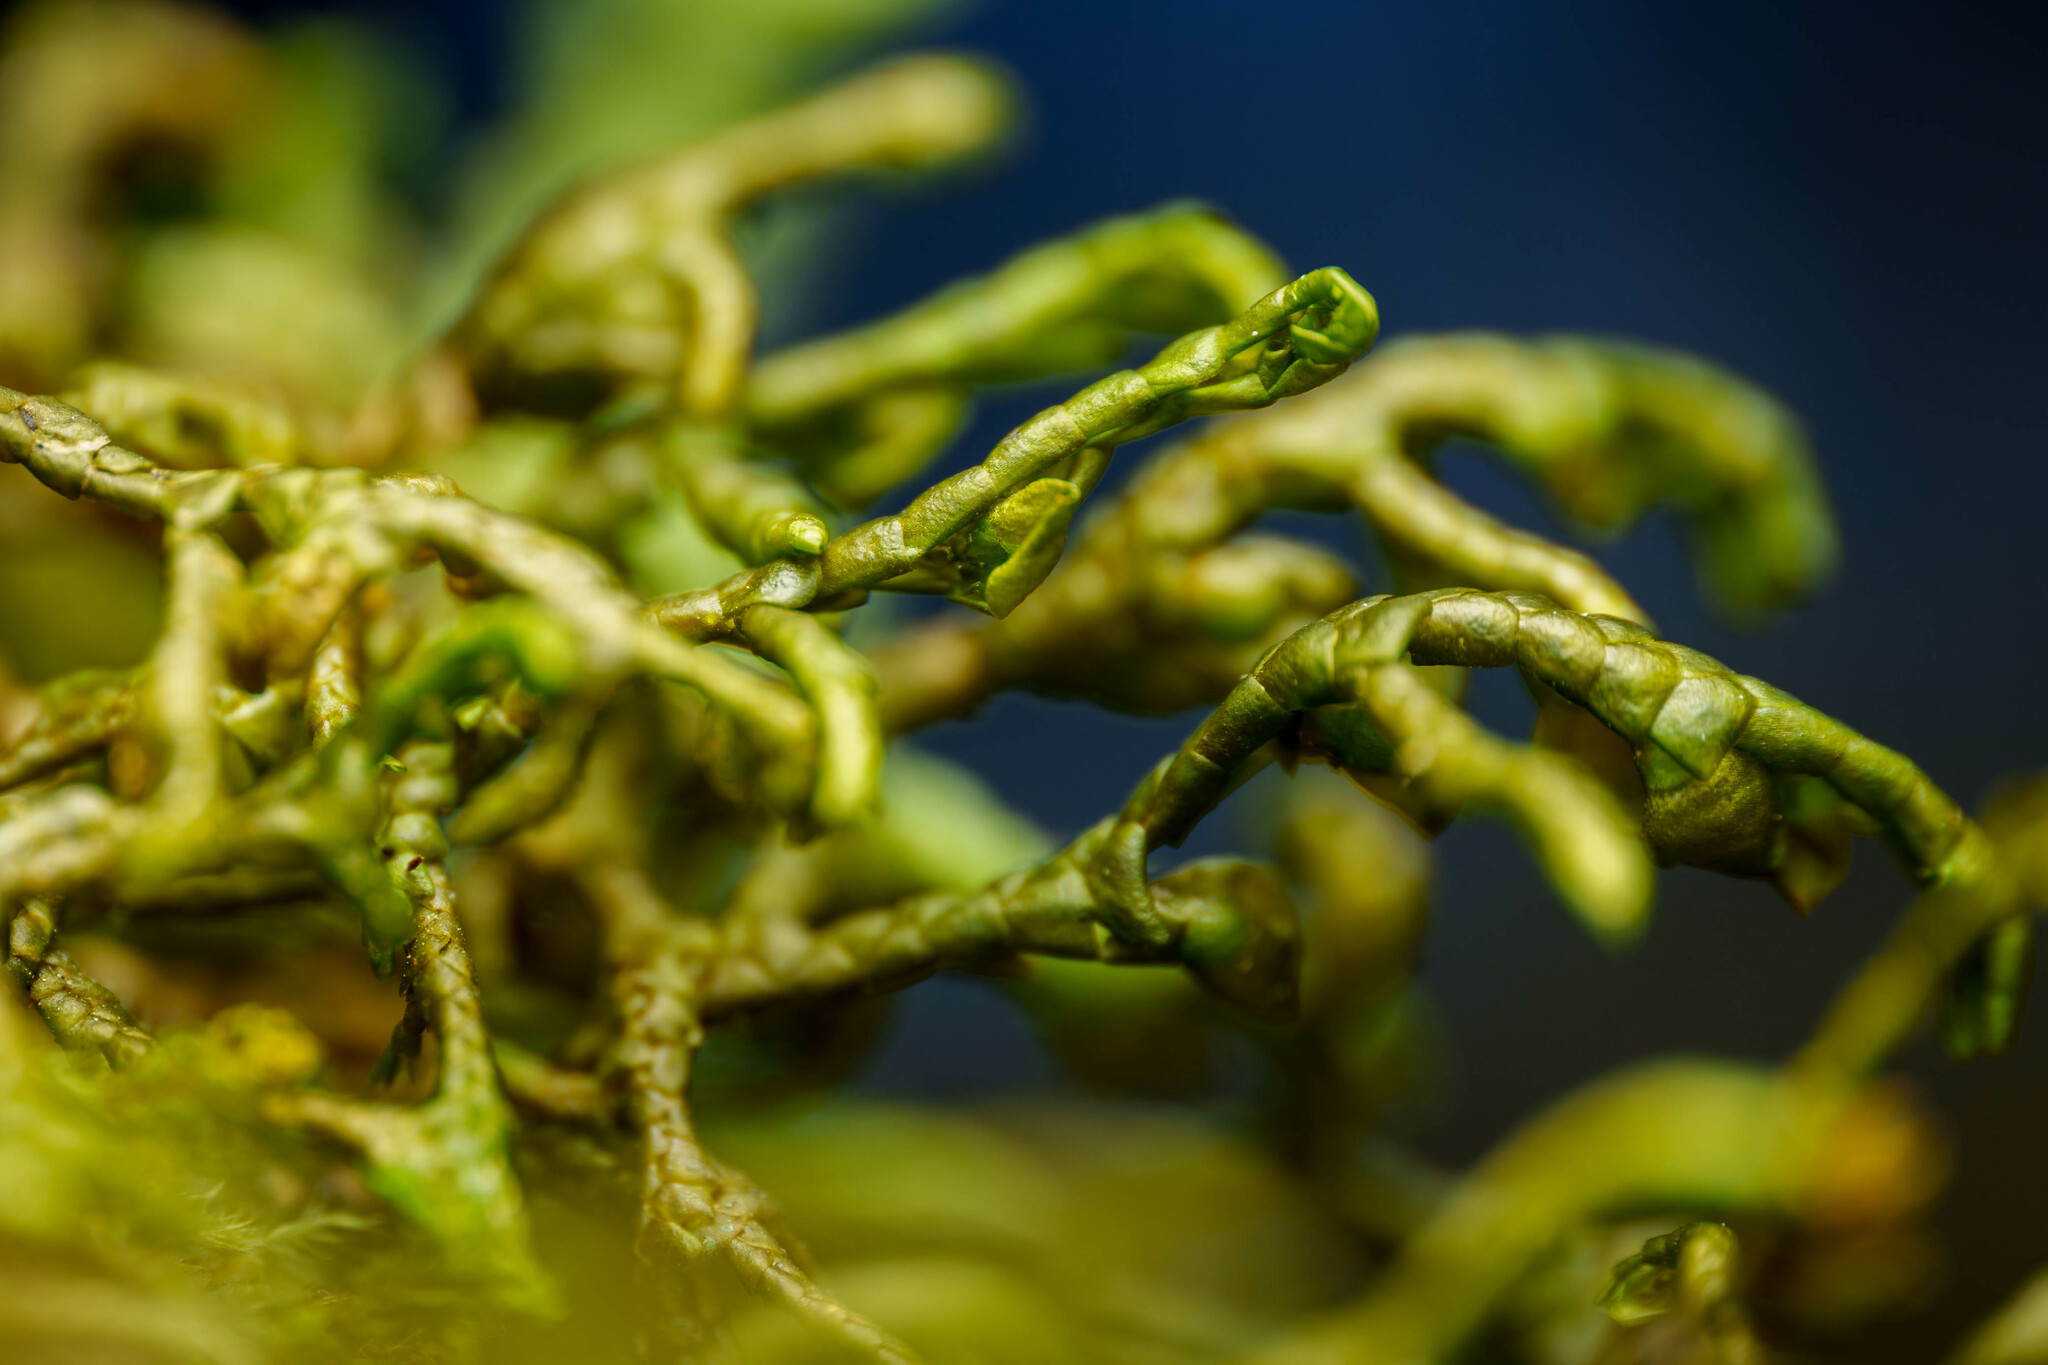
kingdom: Plantae
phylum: Marchantiophyta
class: Jungermanniopsida
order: Porellales
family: Porellaceae
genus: Porella
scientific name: Porella navicularis
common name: Tree ruffle liverwort
